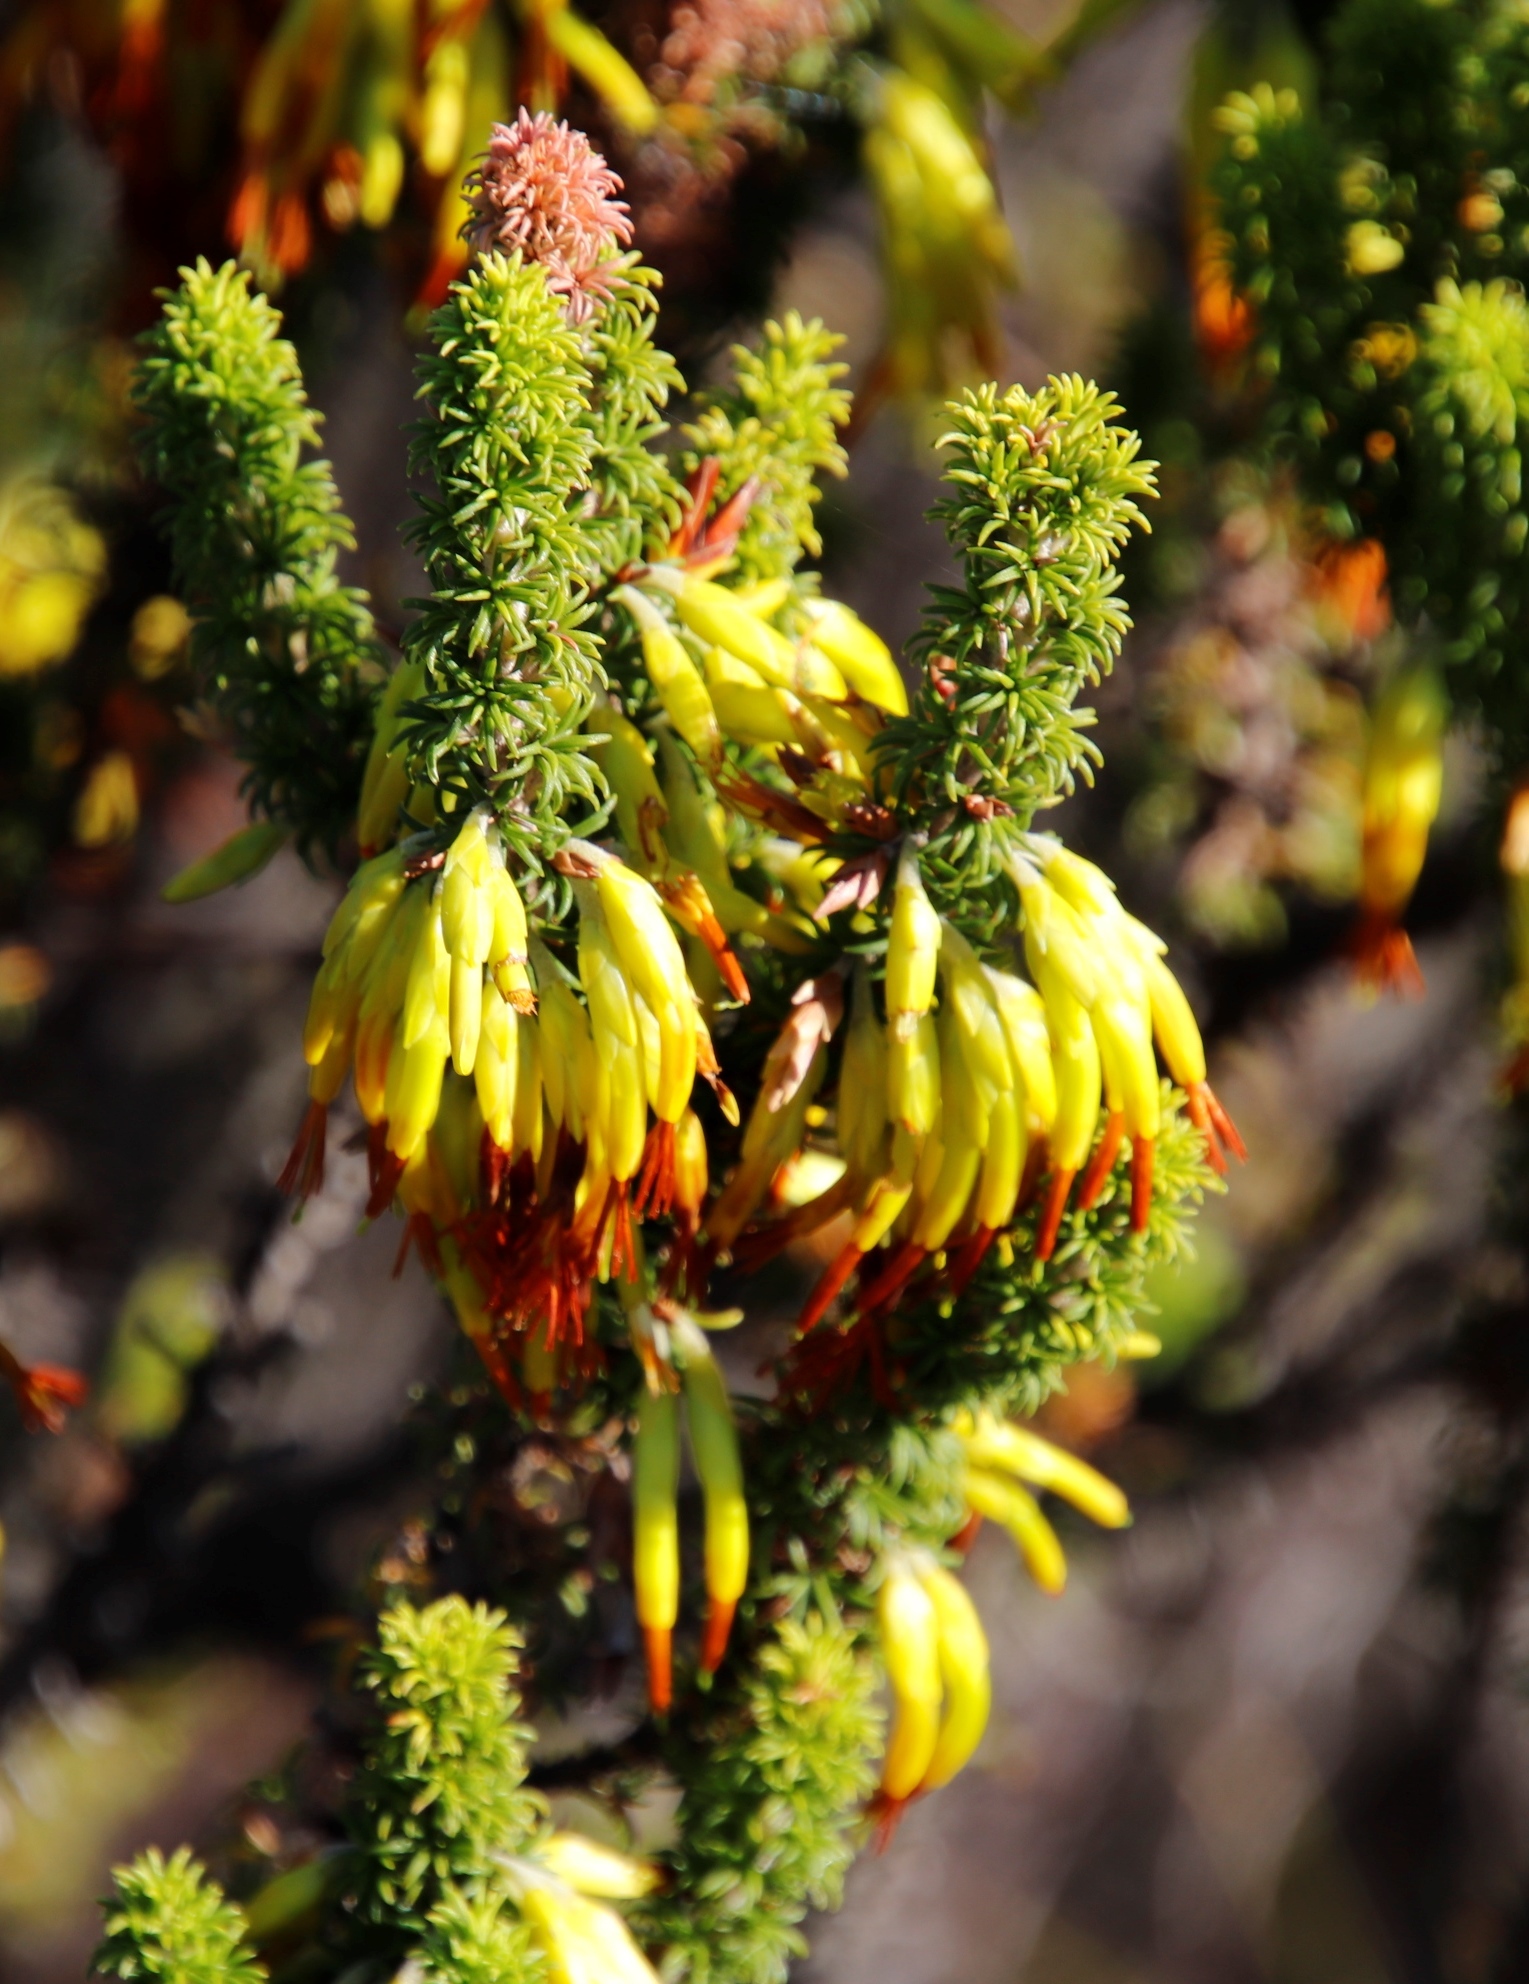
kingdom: Plantae
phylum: Tracheophyta
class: Magnoliopsida
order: Ericales
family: Ericaceae
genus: Erica
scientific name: Erica coccinea
